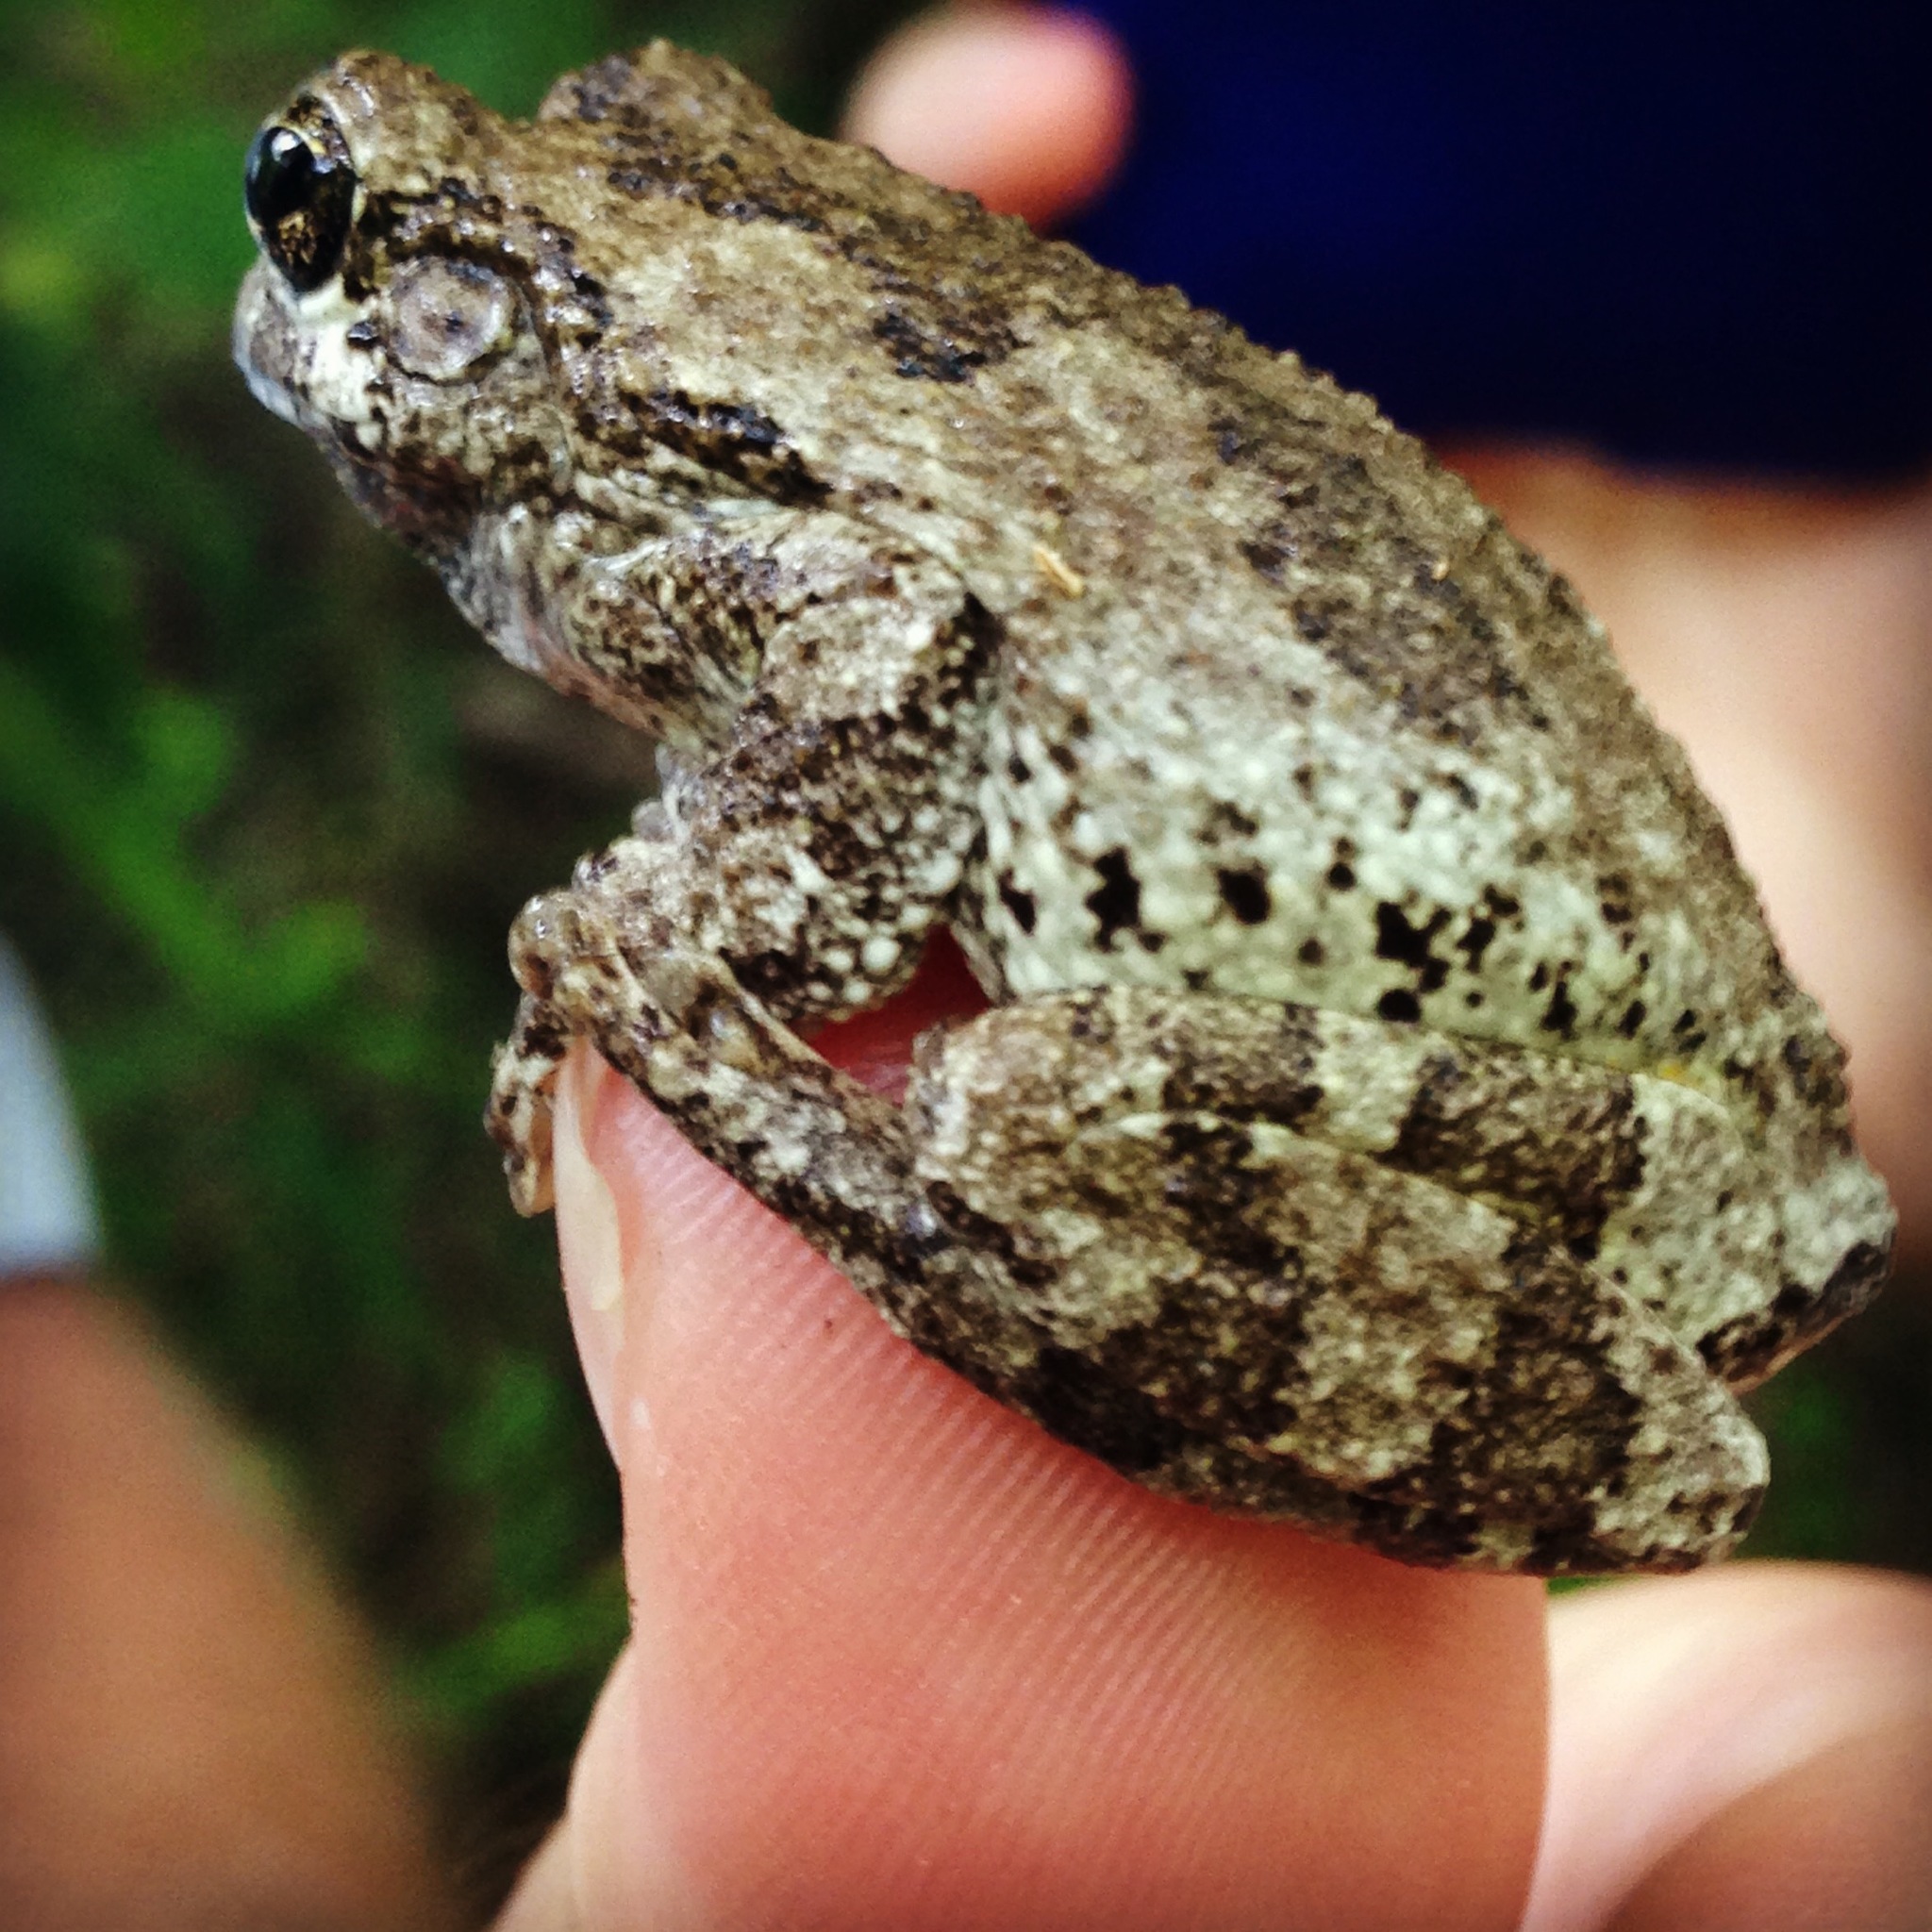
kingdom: Animalia
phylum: Chordata
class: Amphibia
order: Anura
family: Hylidae
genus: Dryophytes
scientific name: Dryophytes chrysoscelis
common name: Cope's gray treefrog
